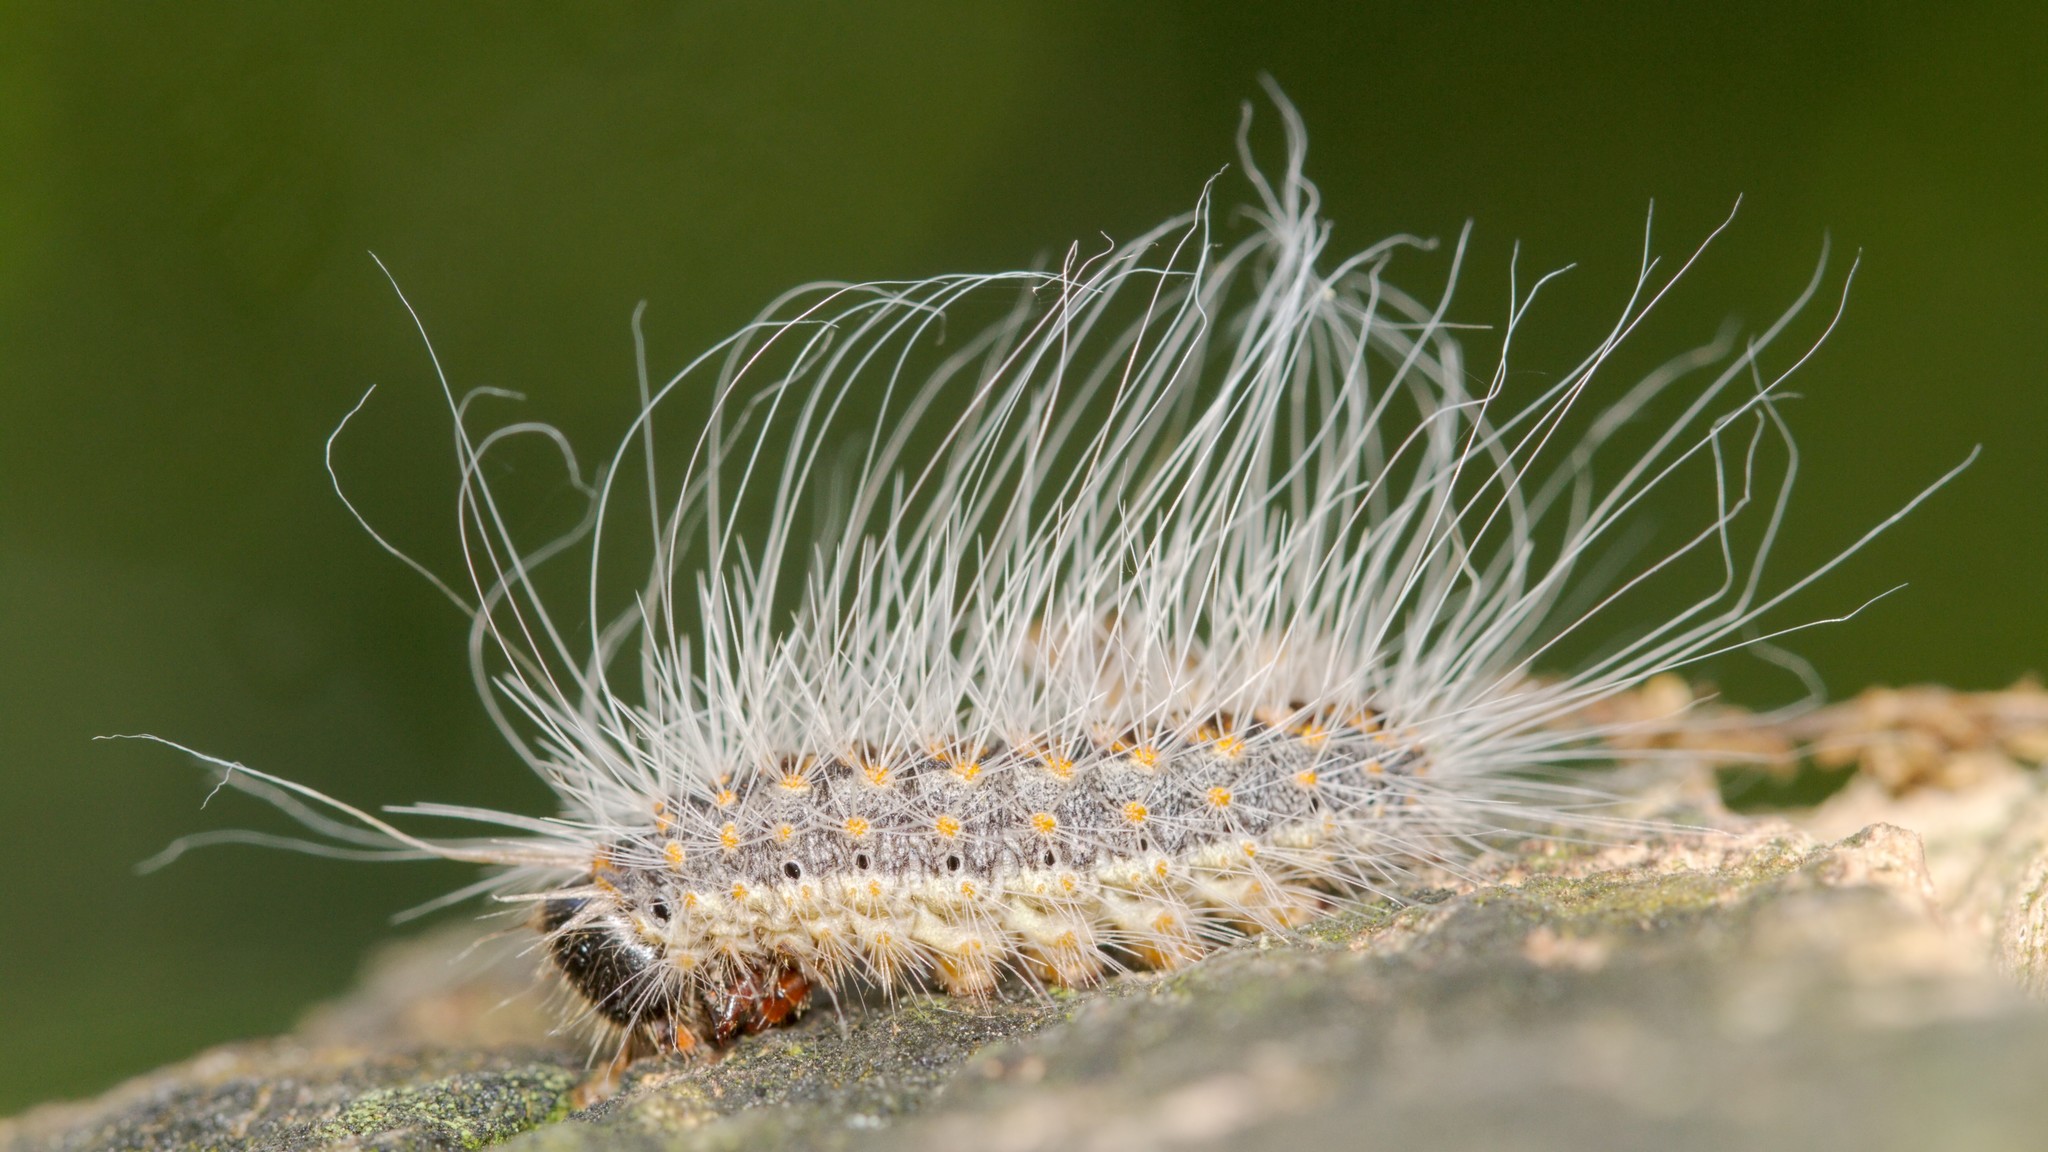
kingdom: Animalia
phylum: Arthropoda
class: Insecta
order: Lepidoptera
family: Notodontidae
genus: Thaumetopoea
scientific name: Thaumetopoea processionea
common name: Oak processionea
